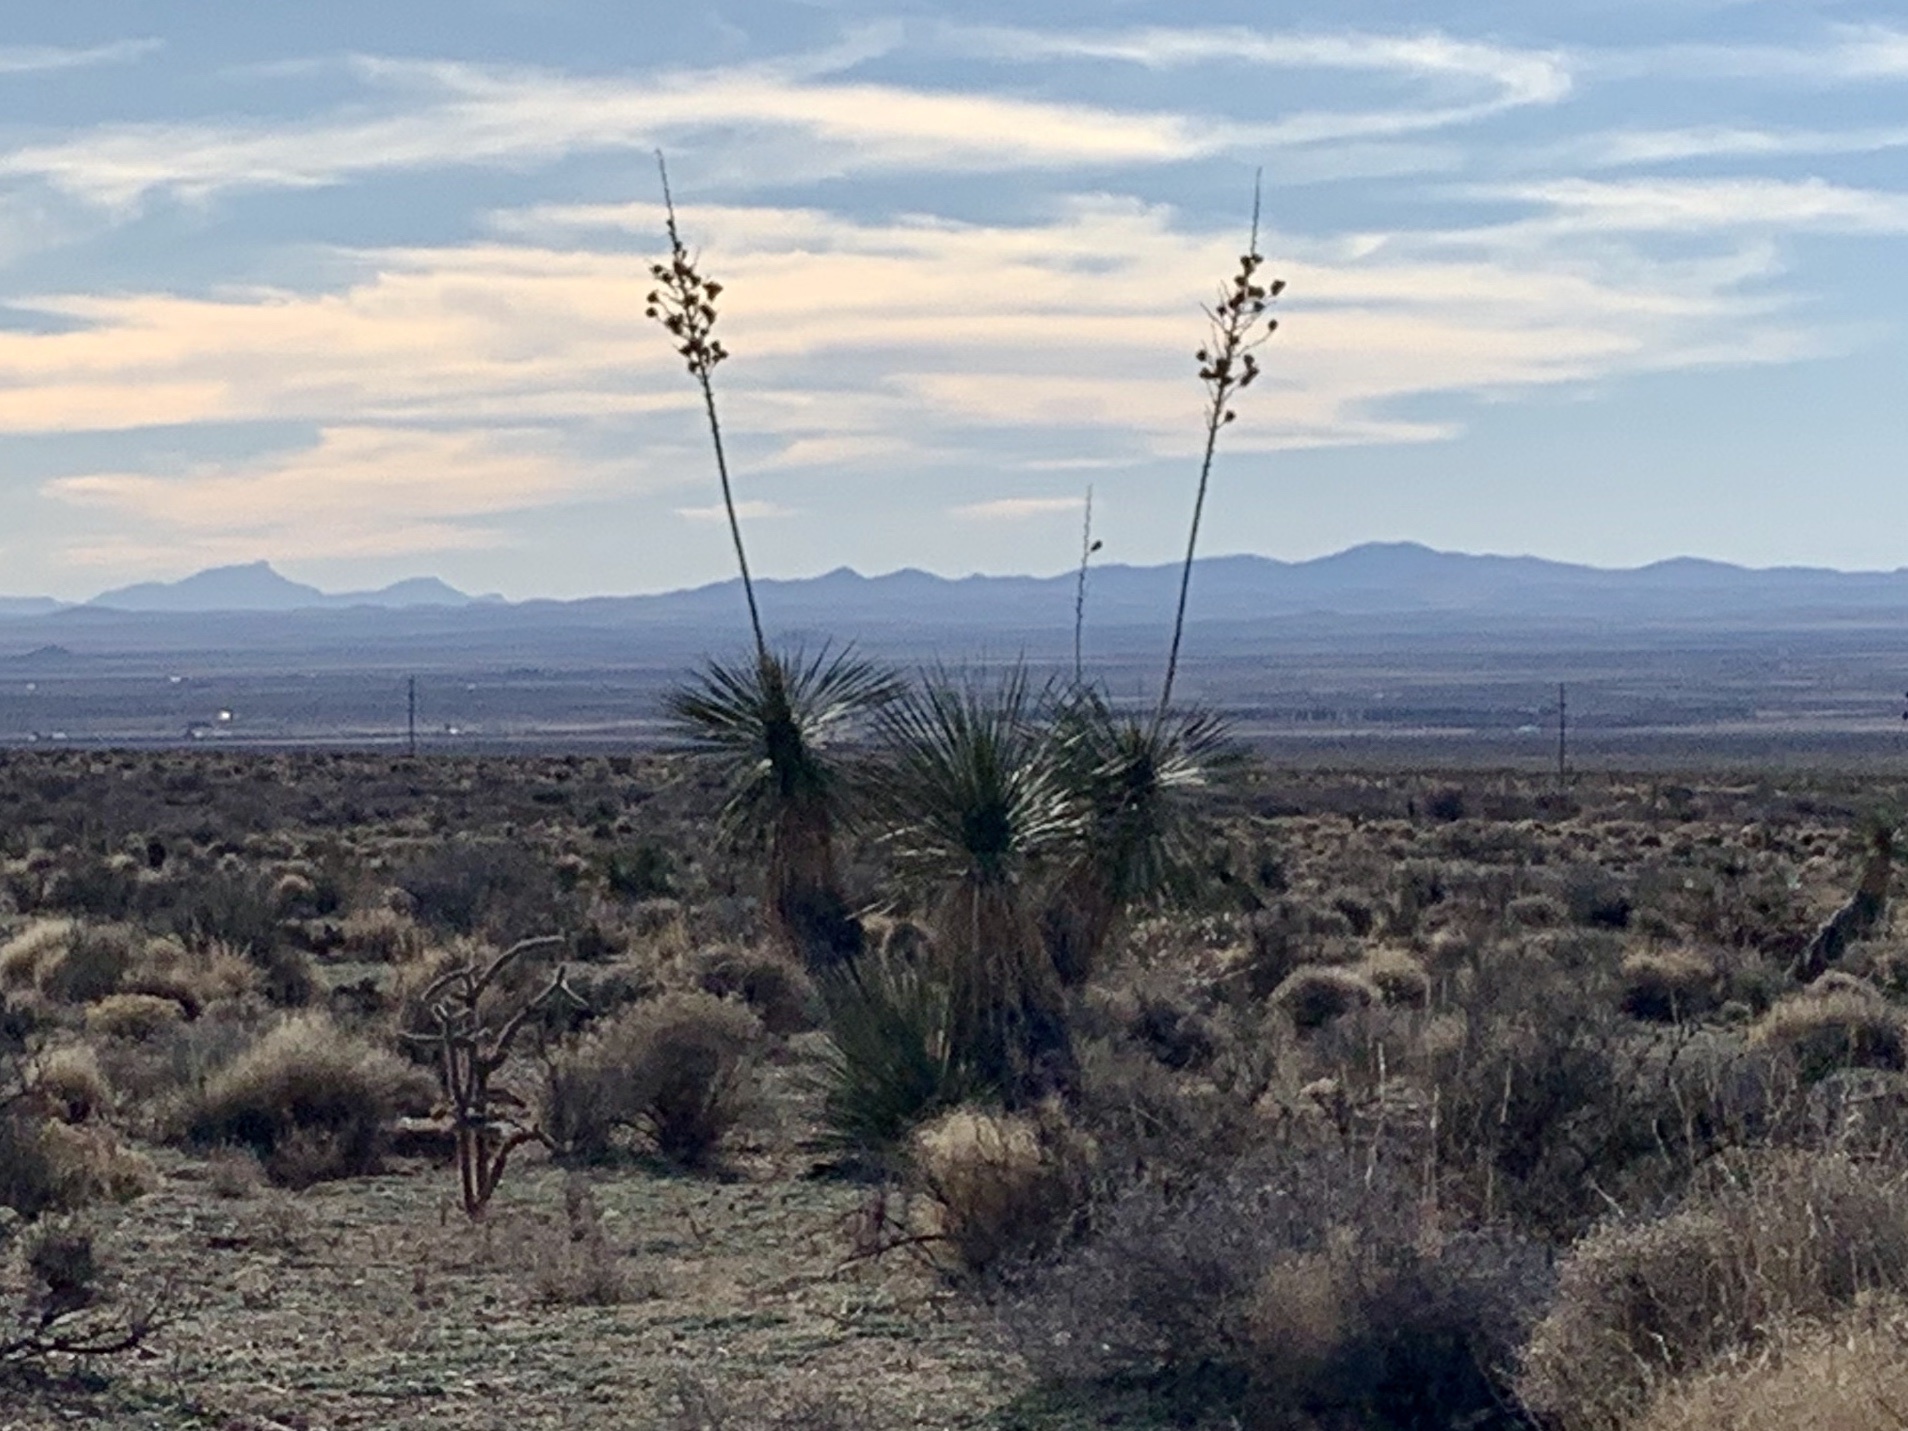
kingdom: Plantae
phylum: Tracheophyta
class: Liliopsida
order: Asparagales
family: Asparagaceae
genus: Yucca
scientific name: Yucca elata
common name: Palmella
